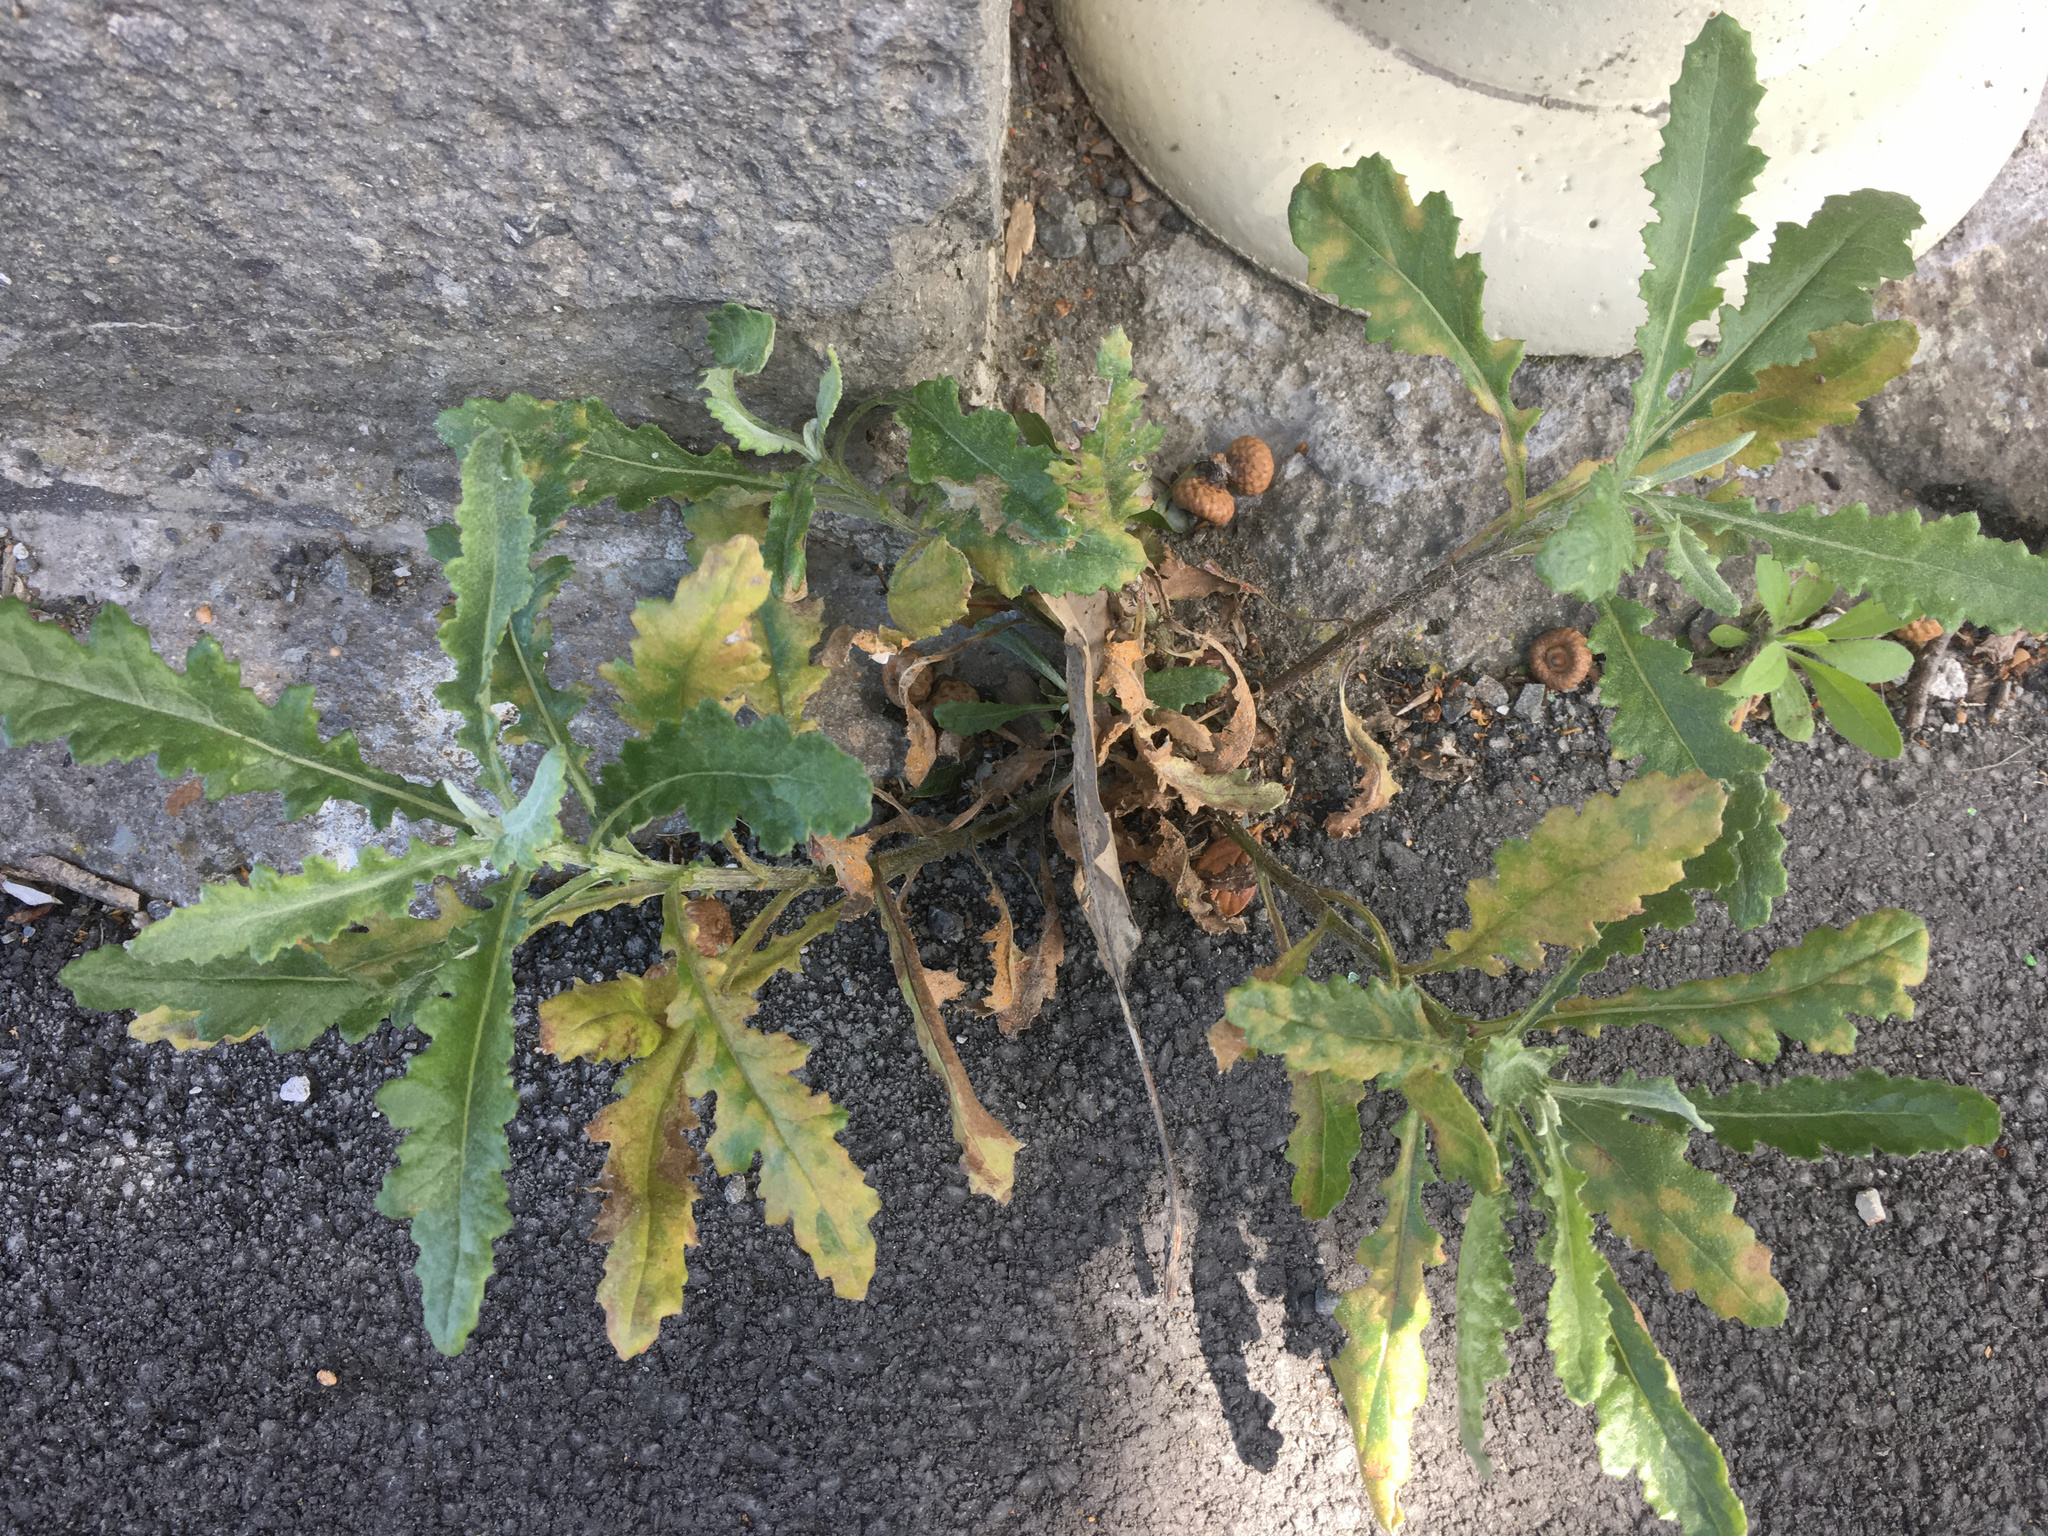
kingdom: Plantae
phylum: Tracheophyta
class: Magnoliopsida
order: Asterales
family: Asteraceae
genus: Senecio
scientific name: Senecio glomeratus
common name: Cutleaf burnweed
